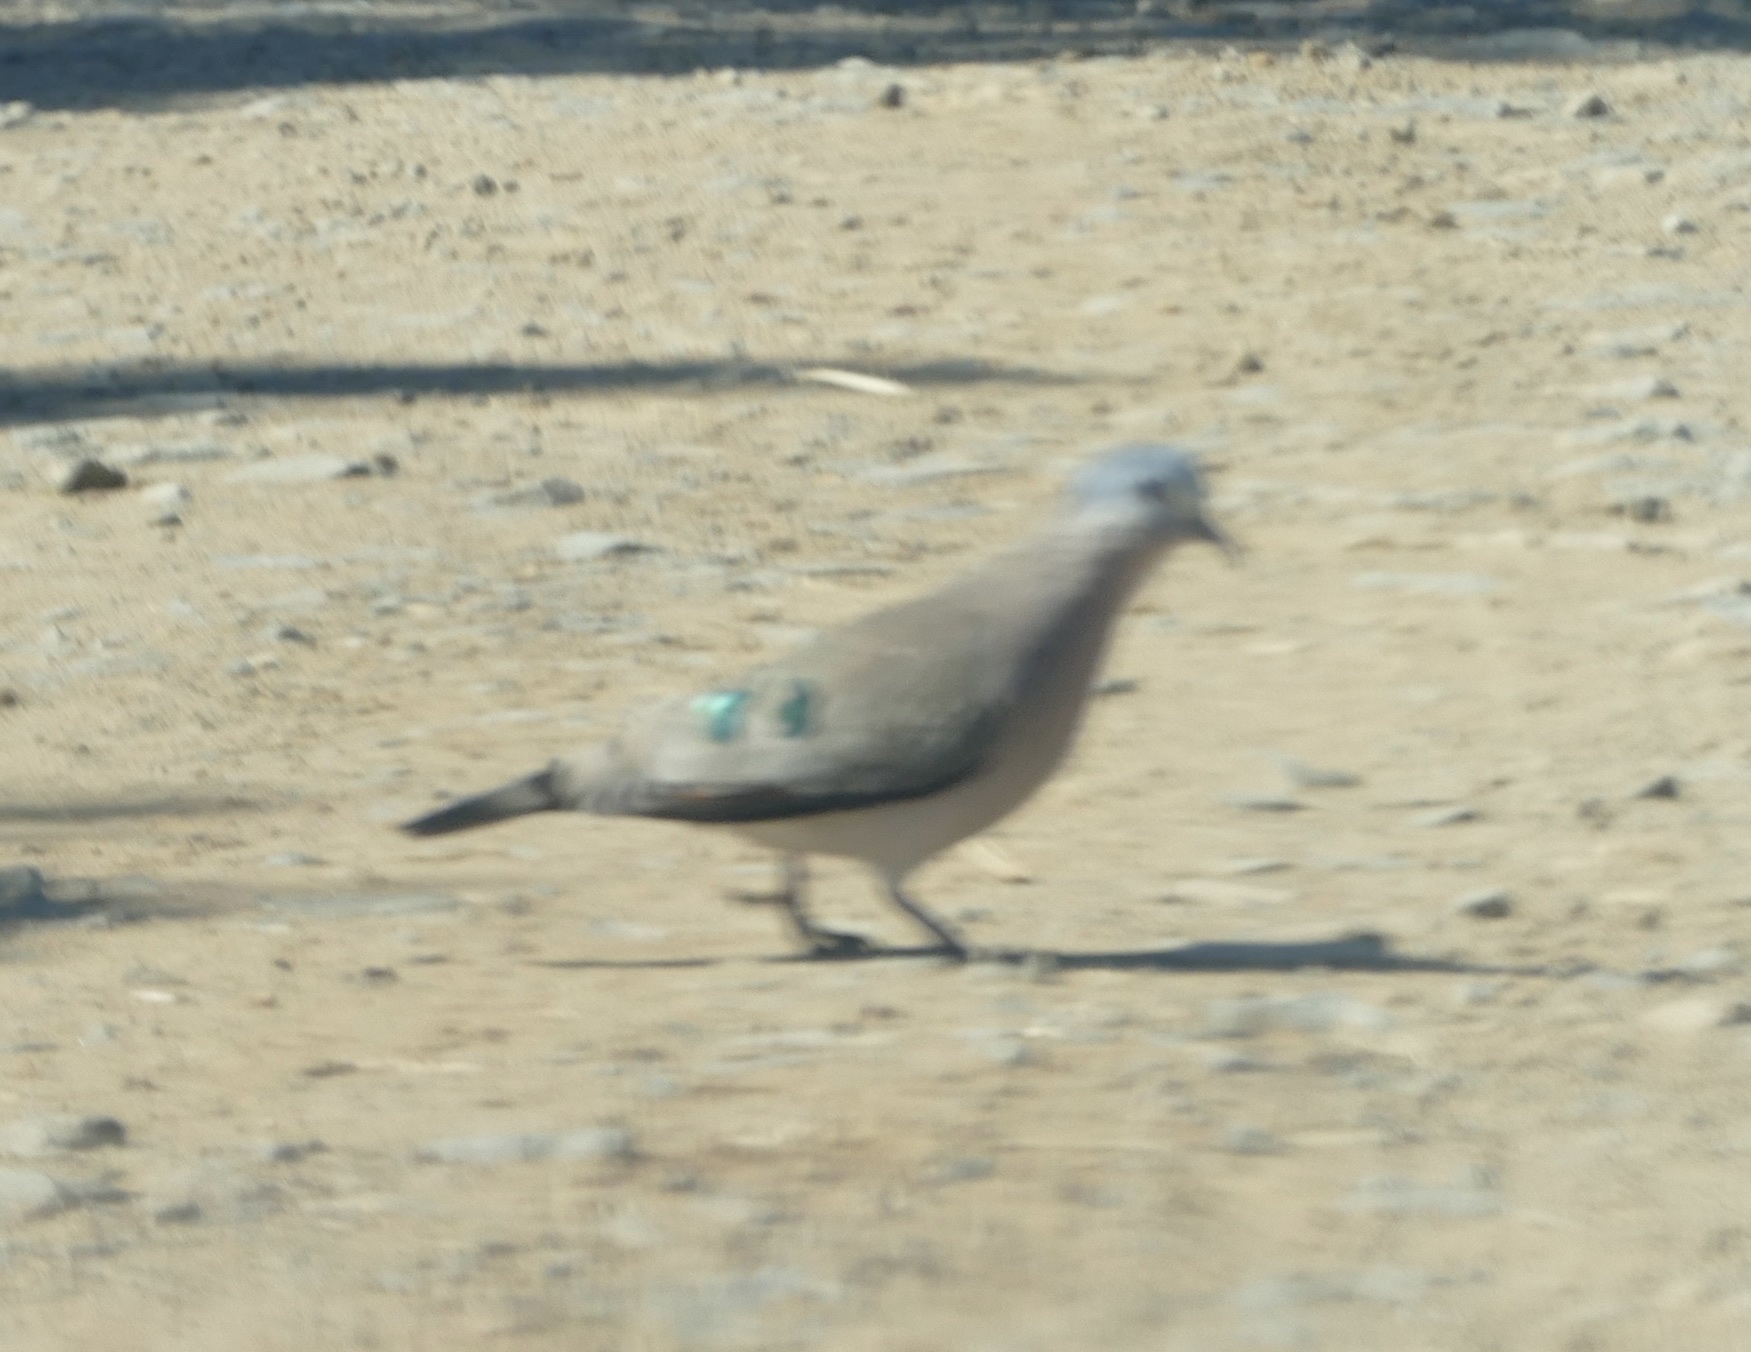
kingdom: Animalia
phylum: Chordata
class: Aves
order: Columbiformes
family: Columbidae
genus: Turtur
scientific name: Turtur chalcospilos
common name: Emerald-spotted wood dove
